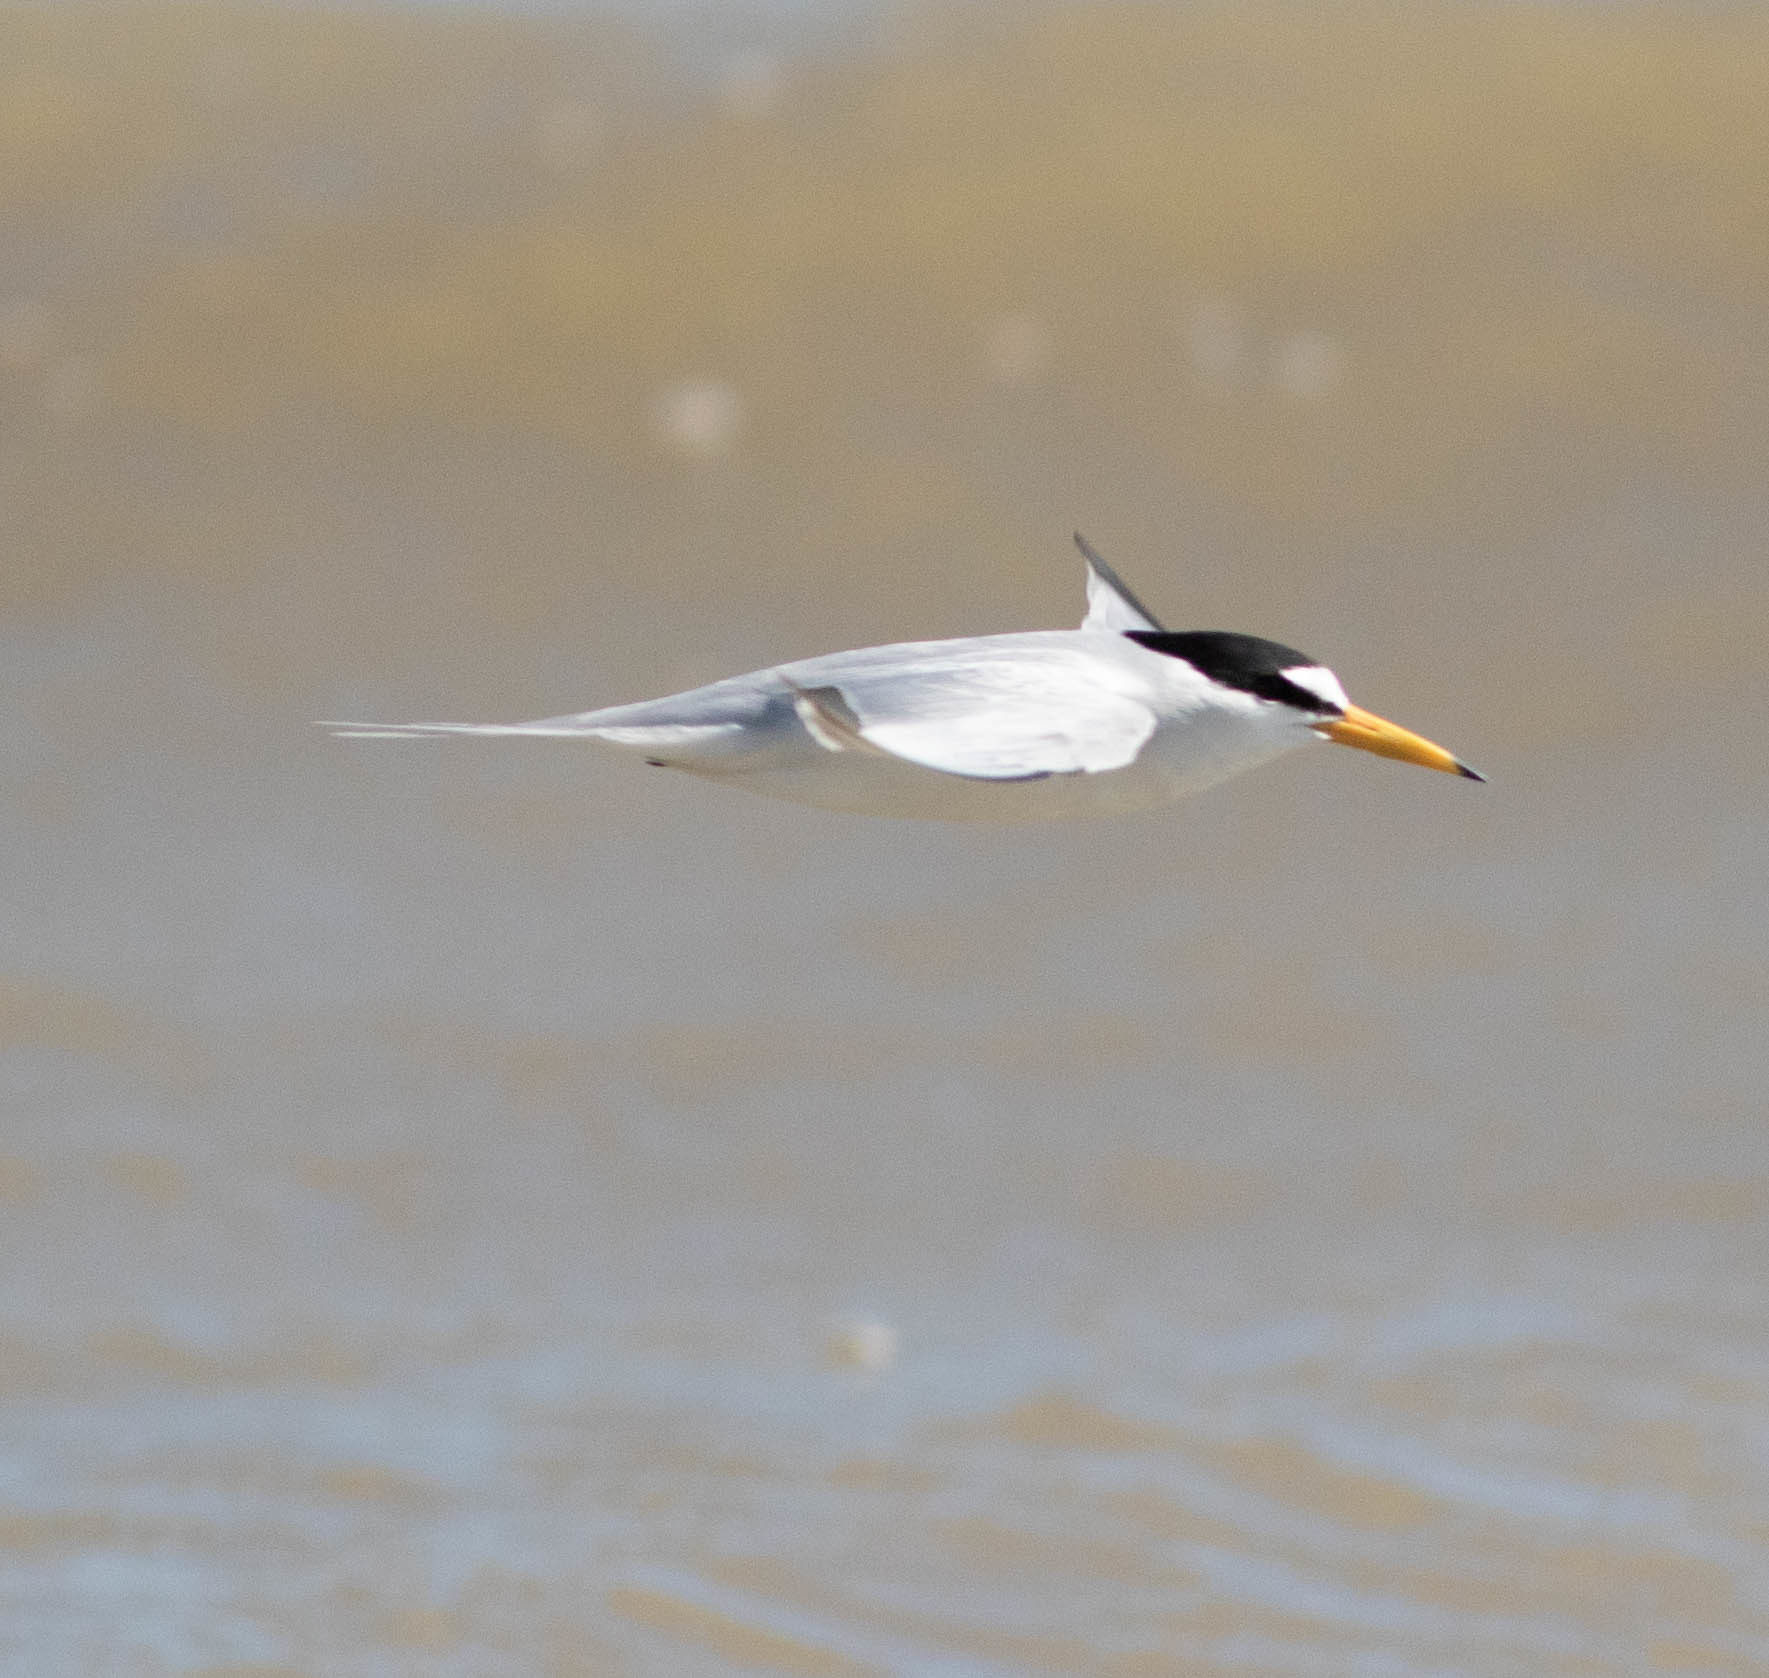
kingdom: Animalia
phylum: Chordata
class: Aves
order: Charadriiformes
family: Laridae
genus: Sternula
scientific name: Sternula antillarum
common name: Least tern
